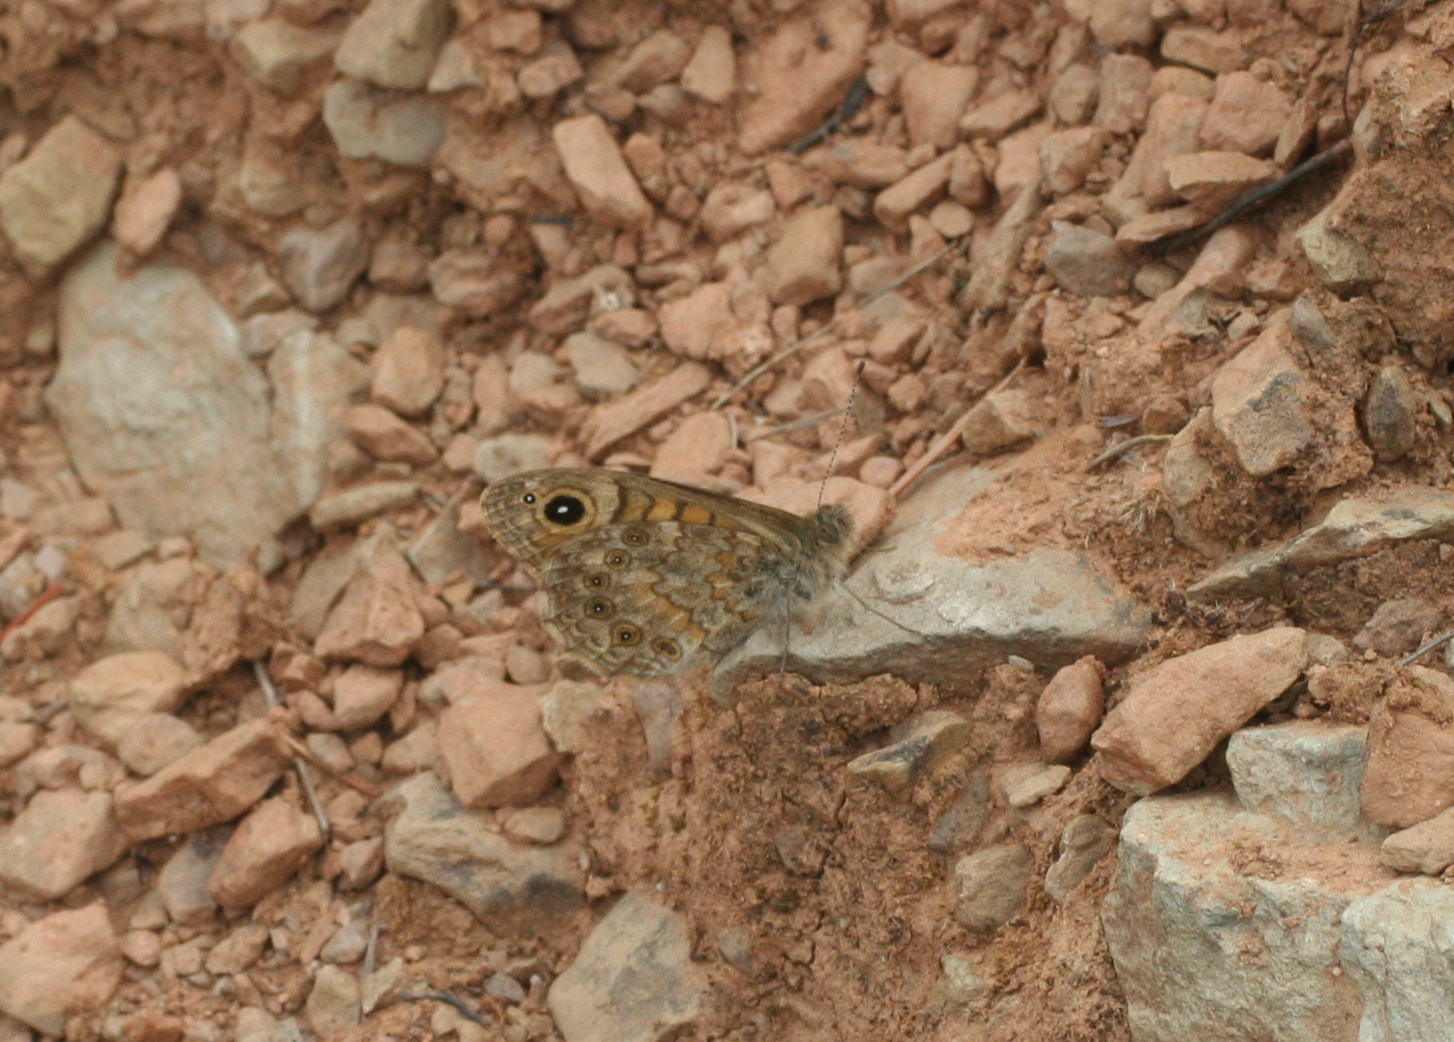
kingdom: Animalia
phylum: Arthropoda
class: Insecta
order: Lepidoptera
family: Nymphalidae
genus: Pararge
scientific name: Pararge Lasiommata megera
